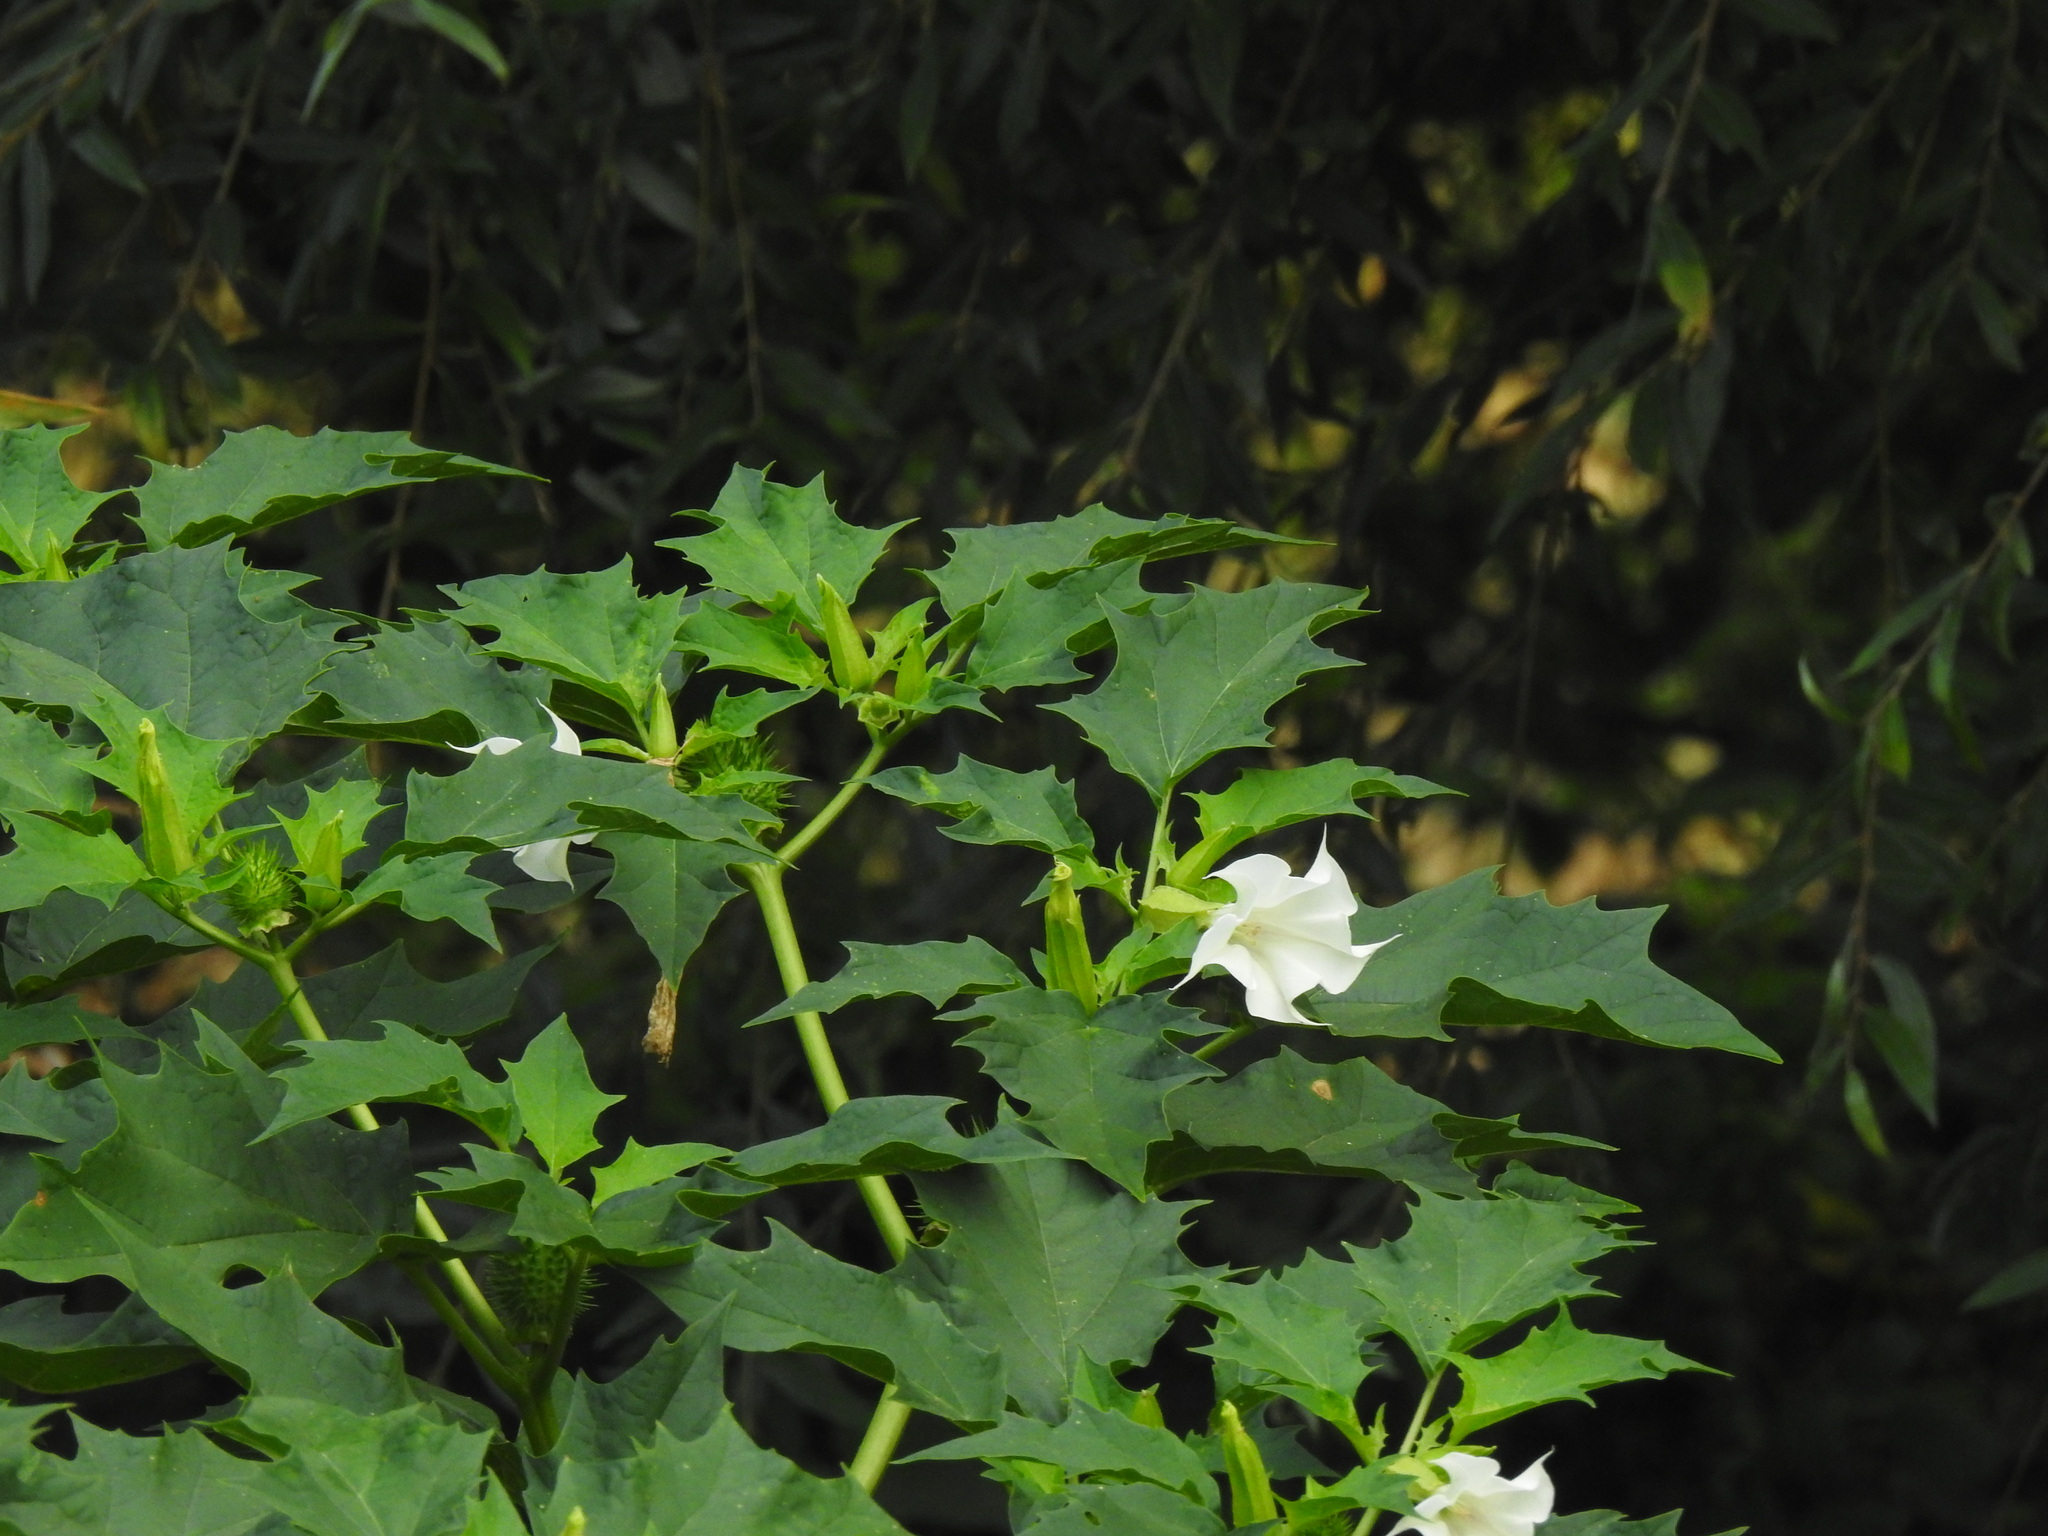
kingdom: Plantae
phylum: Tracheophyta
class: Magnoliopsida
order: Solanales
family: Solanaceae
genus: Datura
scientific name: Datura stramonium
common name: Thorn-apple
